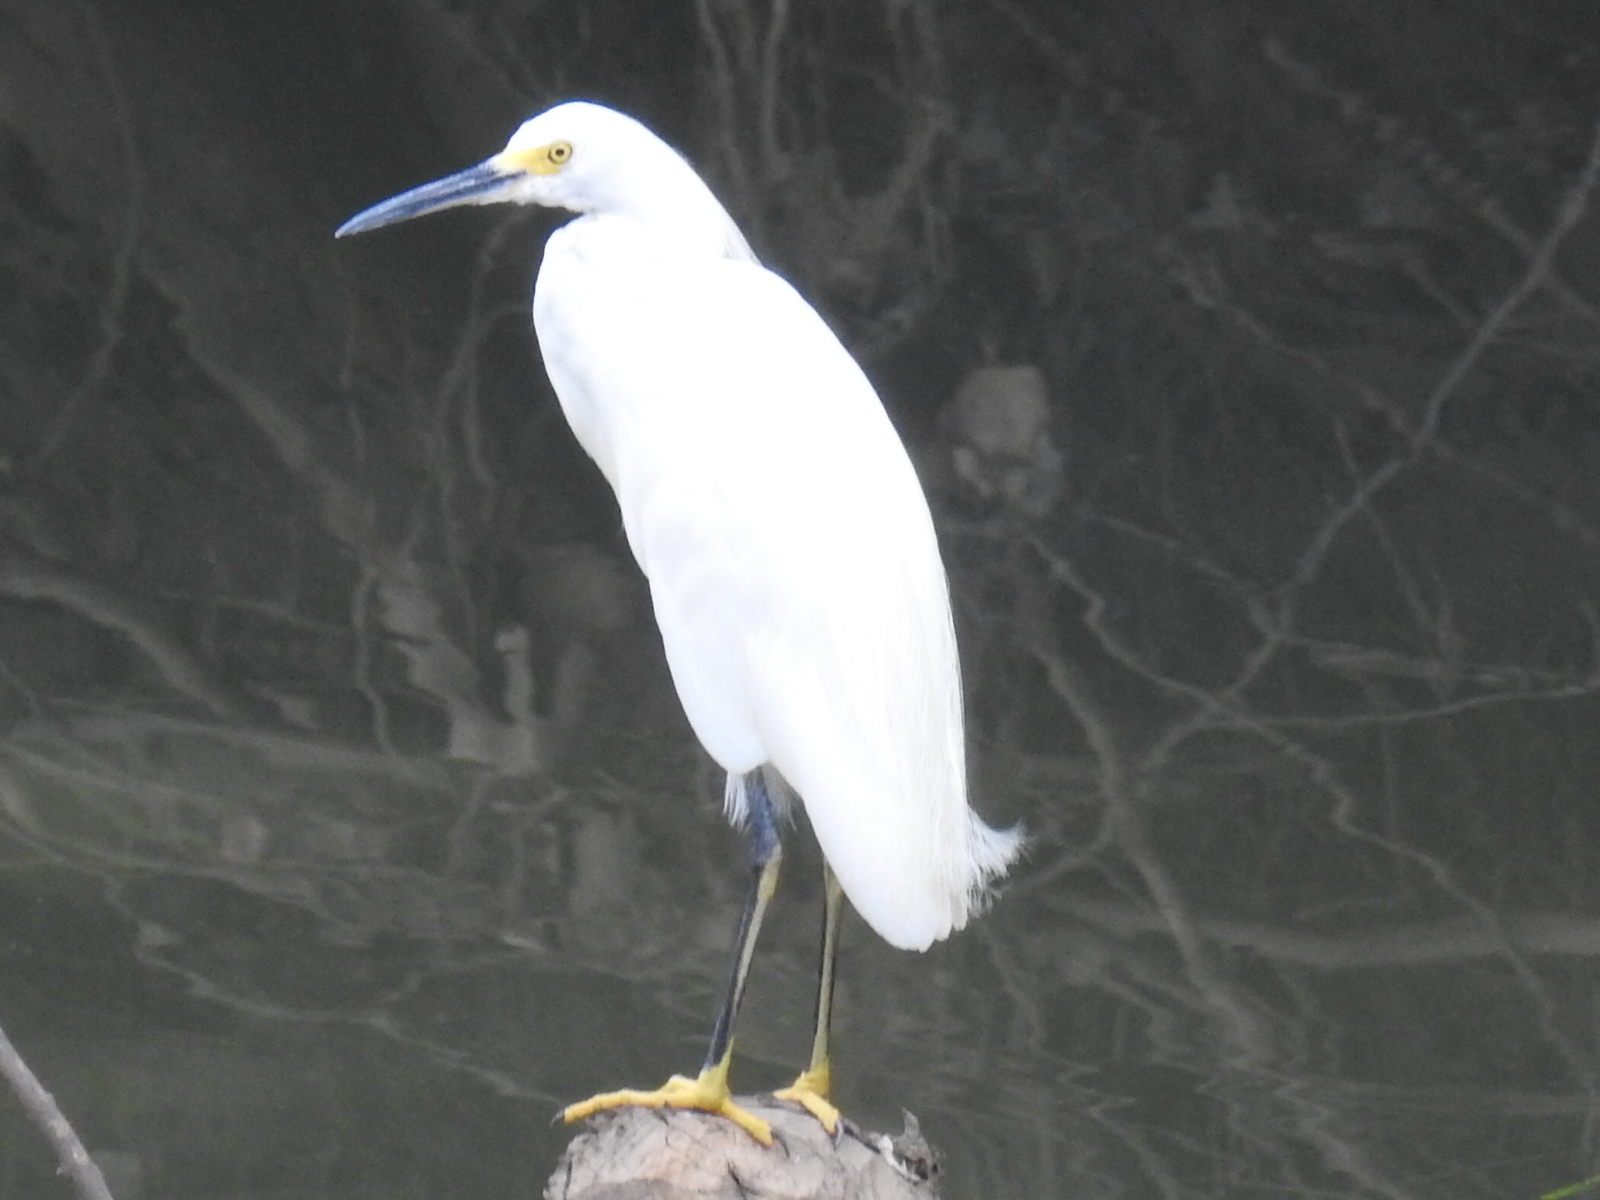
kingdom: Animalia
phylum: Chordata
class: Aves
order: Pelecaniformes
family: Ardeidae
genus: Egretta
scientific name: Egretta thula
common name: Snowy egret
